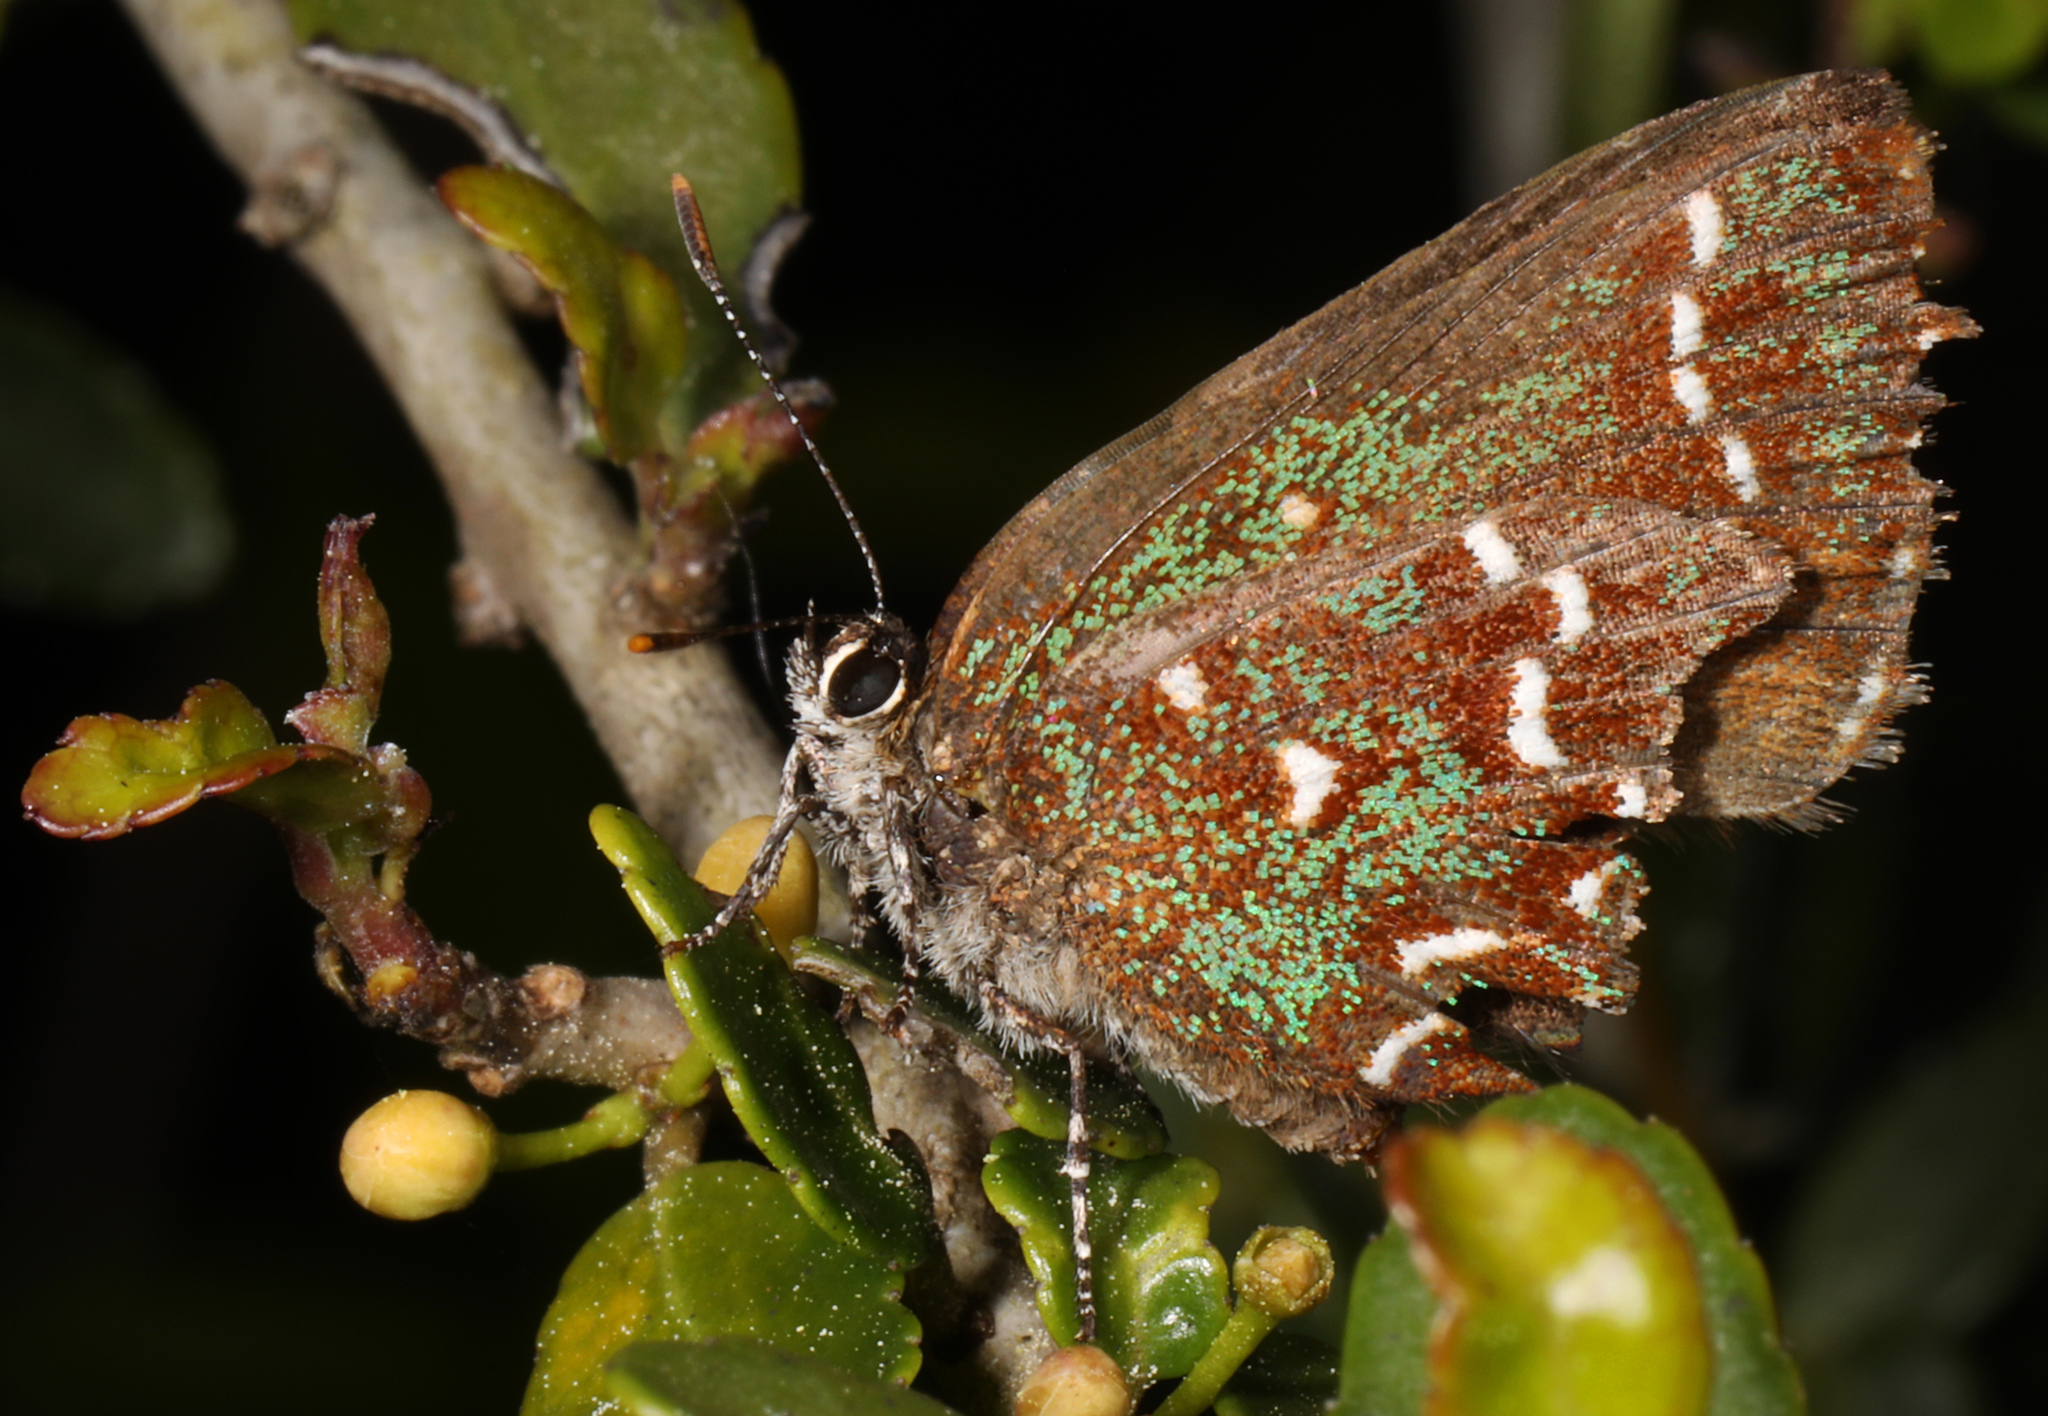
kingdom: Animalia
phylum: Arthropoda
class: Insecta
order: Lepidoptera
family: Lycaenidae
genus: Mitoura
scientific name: Mitoura hesseli
